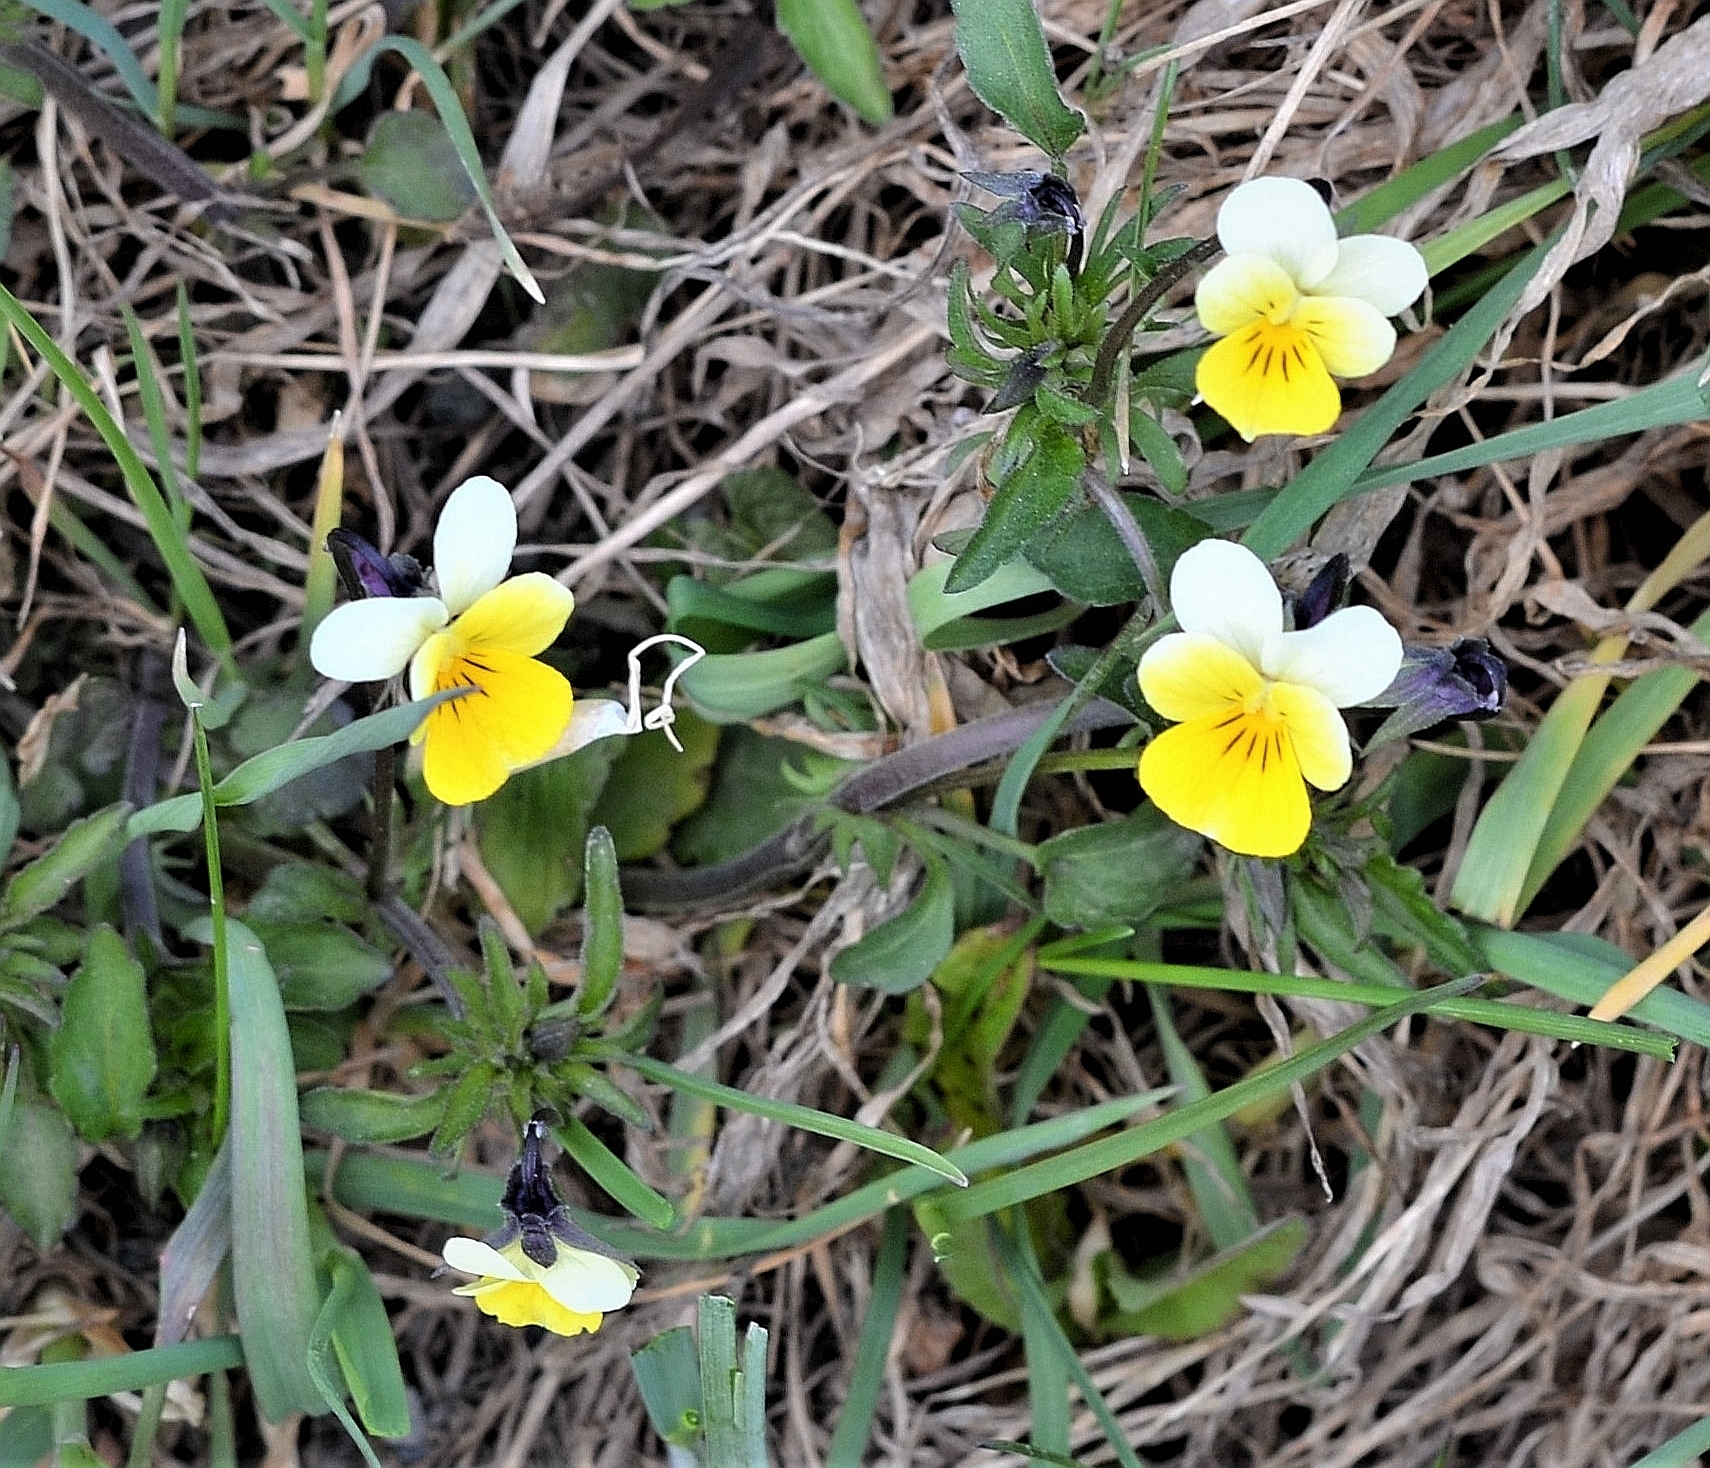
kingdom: Plantae
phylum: Tracheophyta
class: Magnoliopsida
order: Malpighiales
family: Violaceae
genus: Viola
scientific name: Viola arvensis
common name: Field pansy
